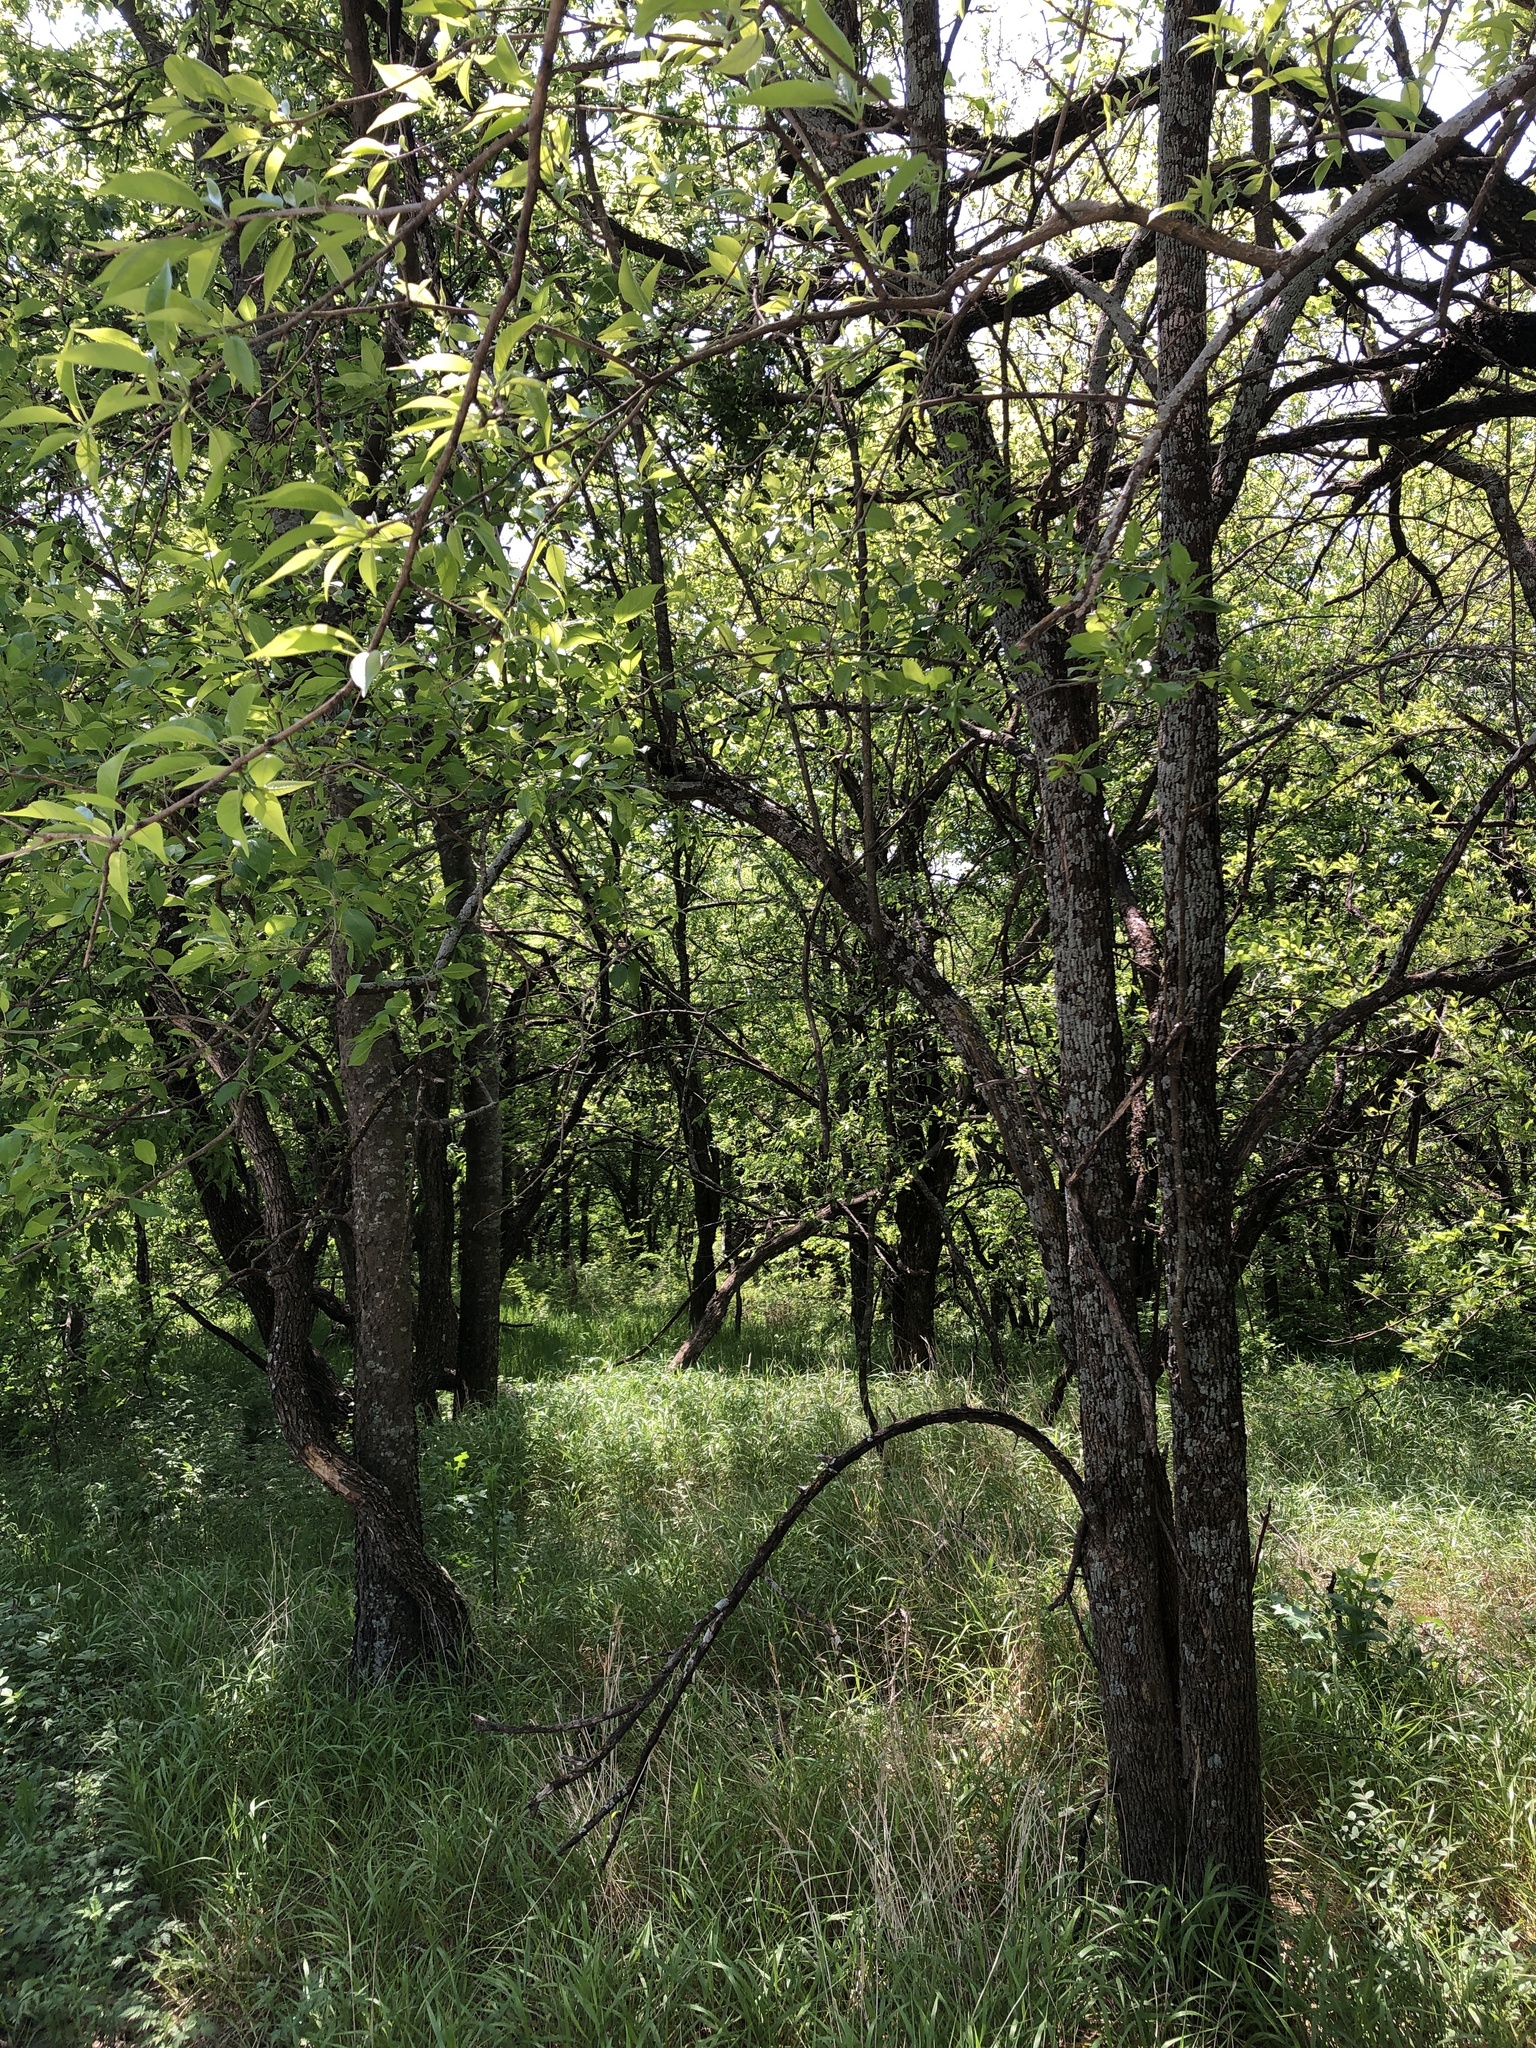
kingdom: Plantae
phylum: Tracheophyta
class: Magnoliopsida
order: Rosales
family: Moraceae
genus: Maclura
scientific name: Maclura pomifera
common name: Osage-orange
